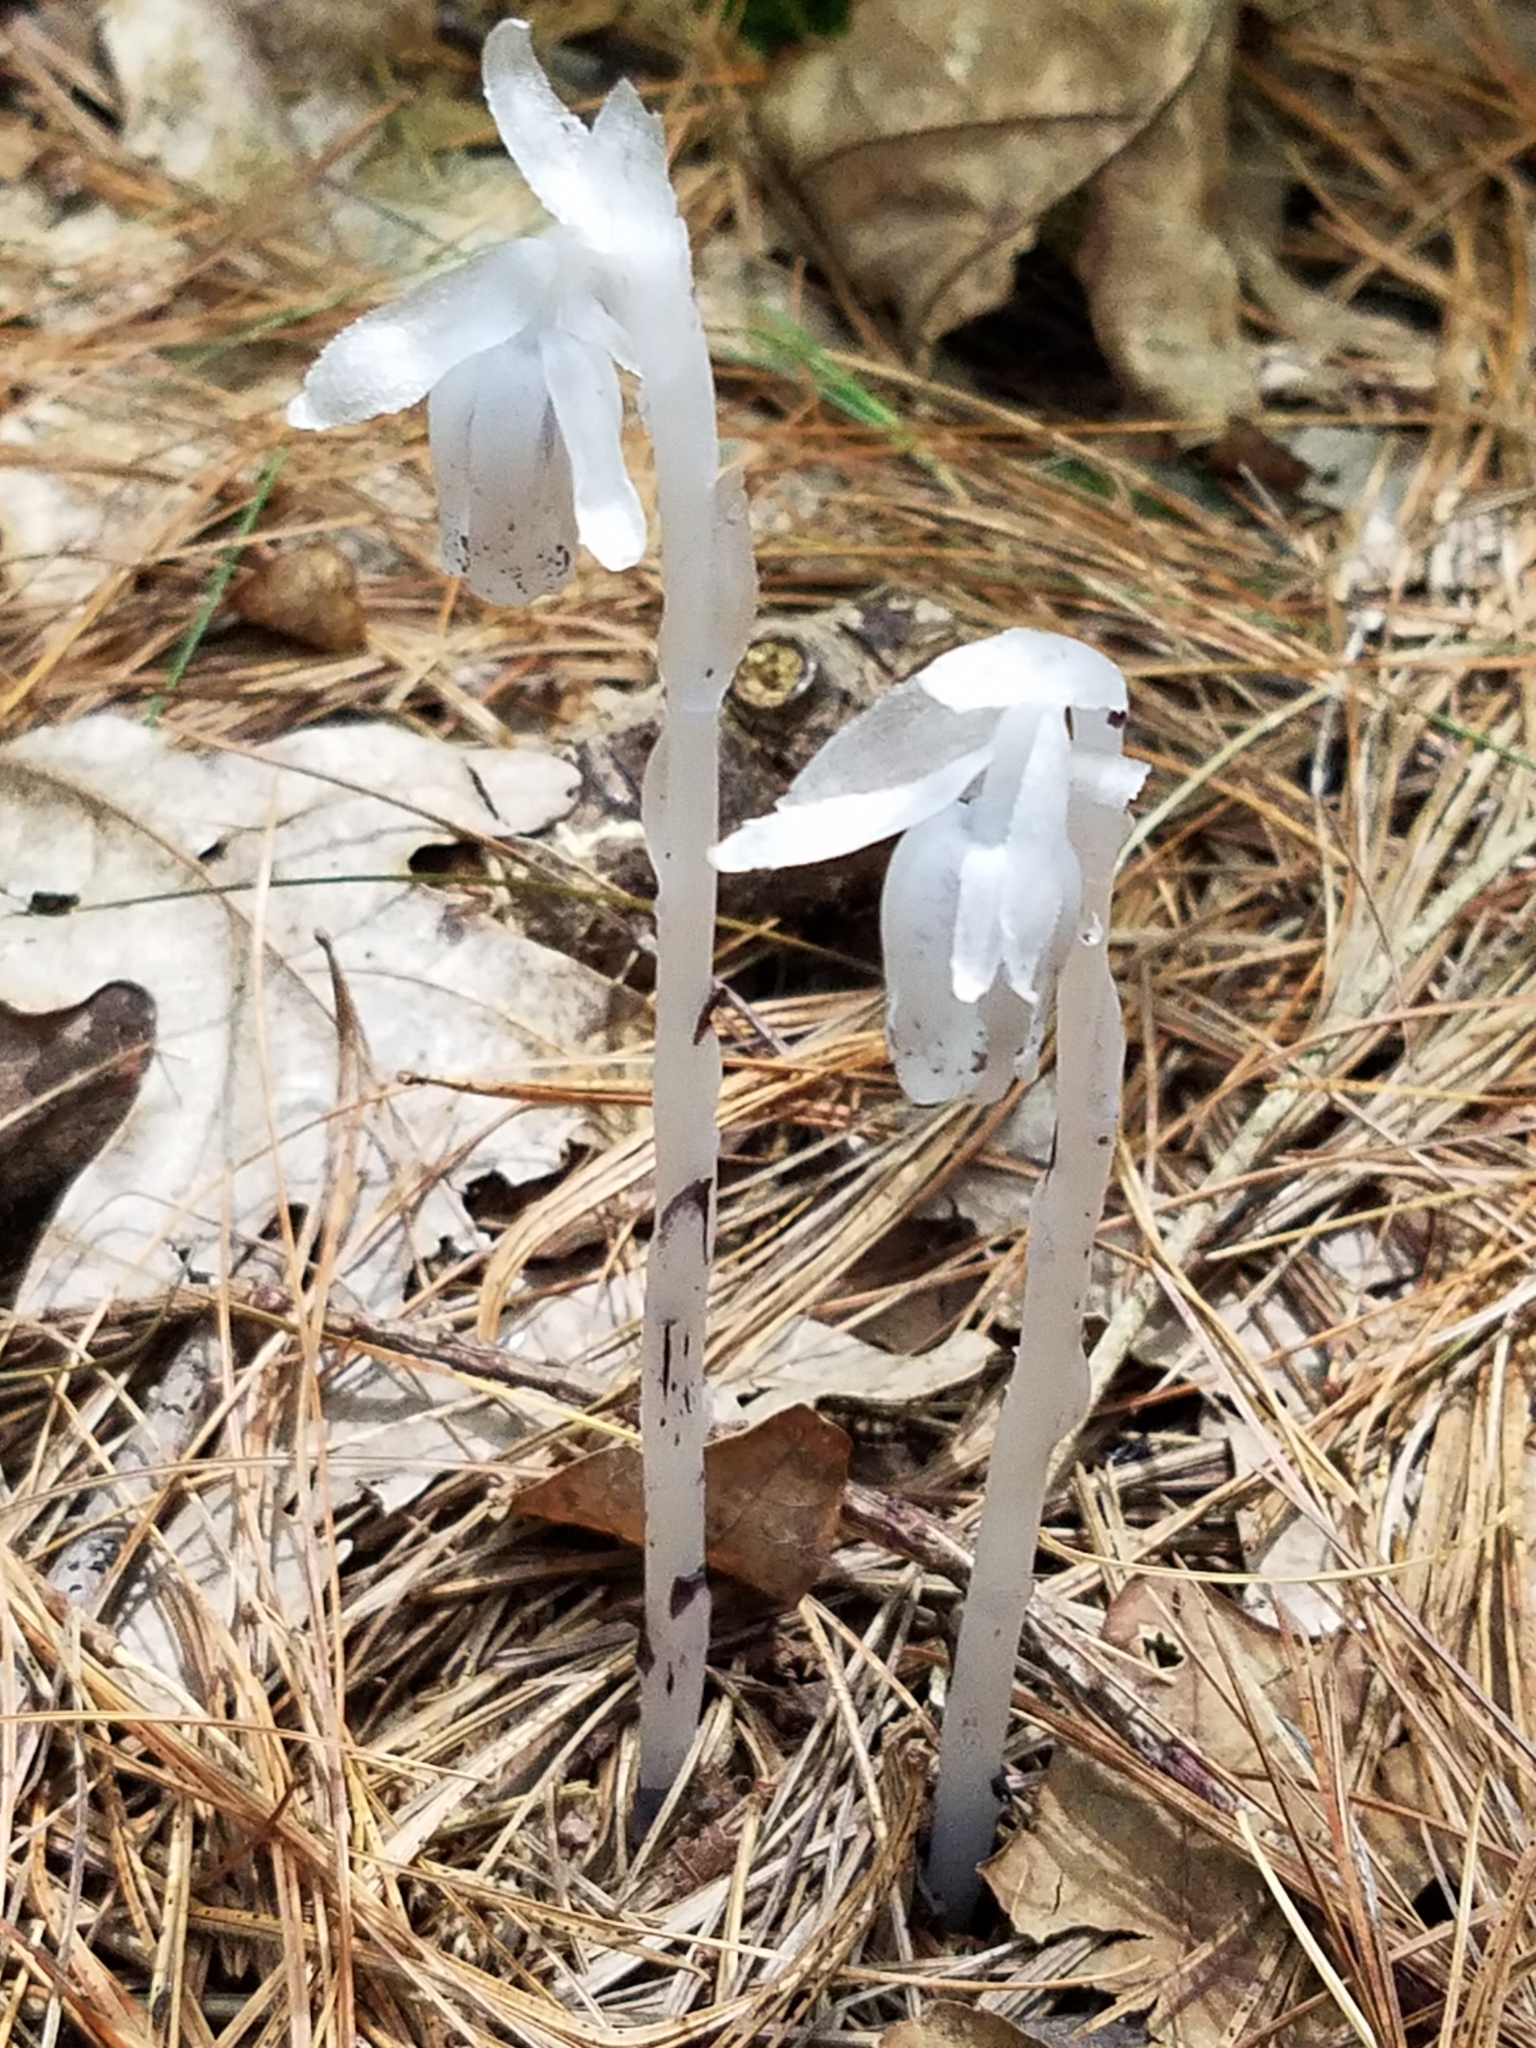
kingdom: Plantae
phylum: Tracheophyta
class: Magnoliopsida
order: Ericales
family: Ericaceae
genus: Monotropa
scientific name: Monotropa uniflora
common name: Convulsion root
